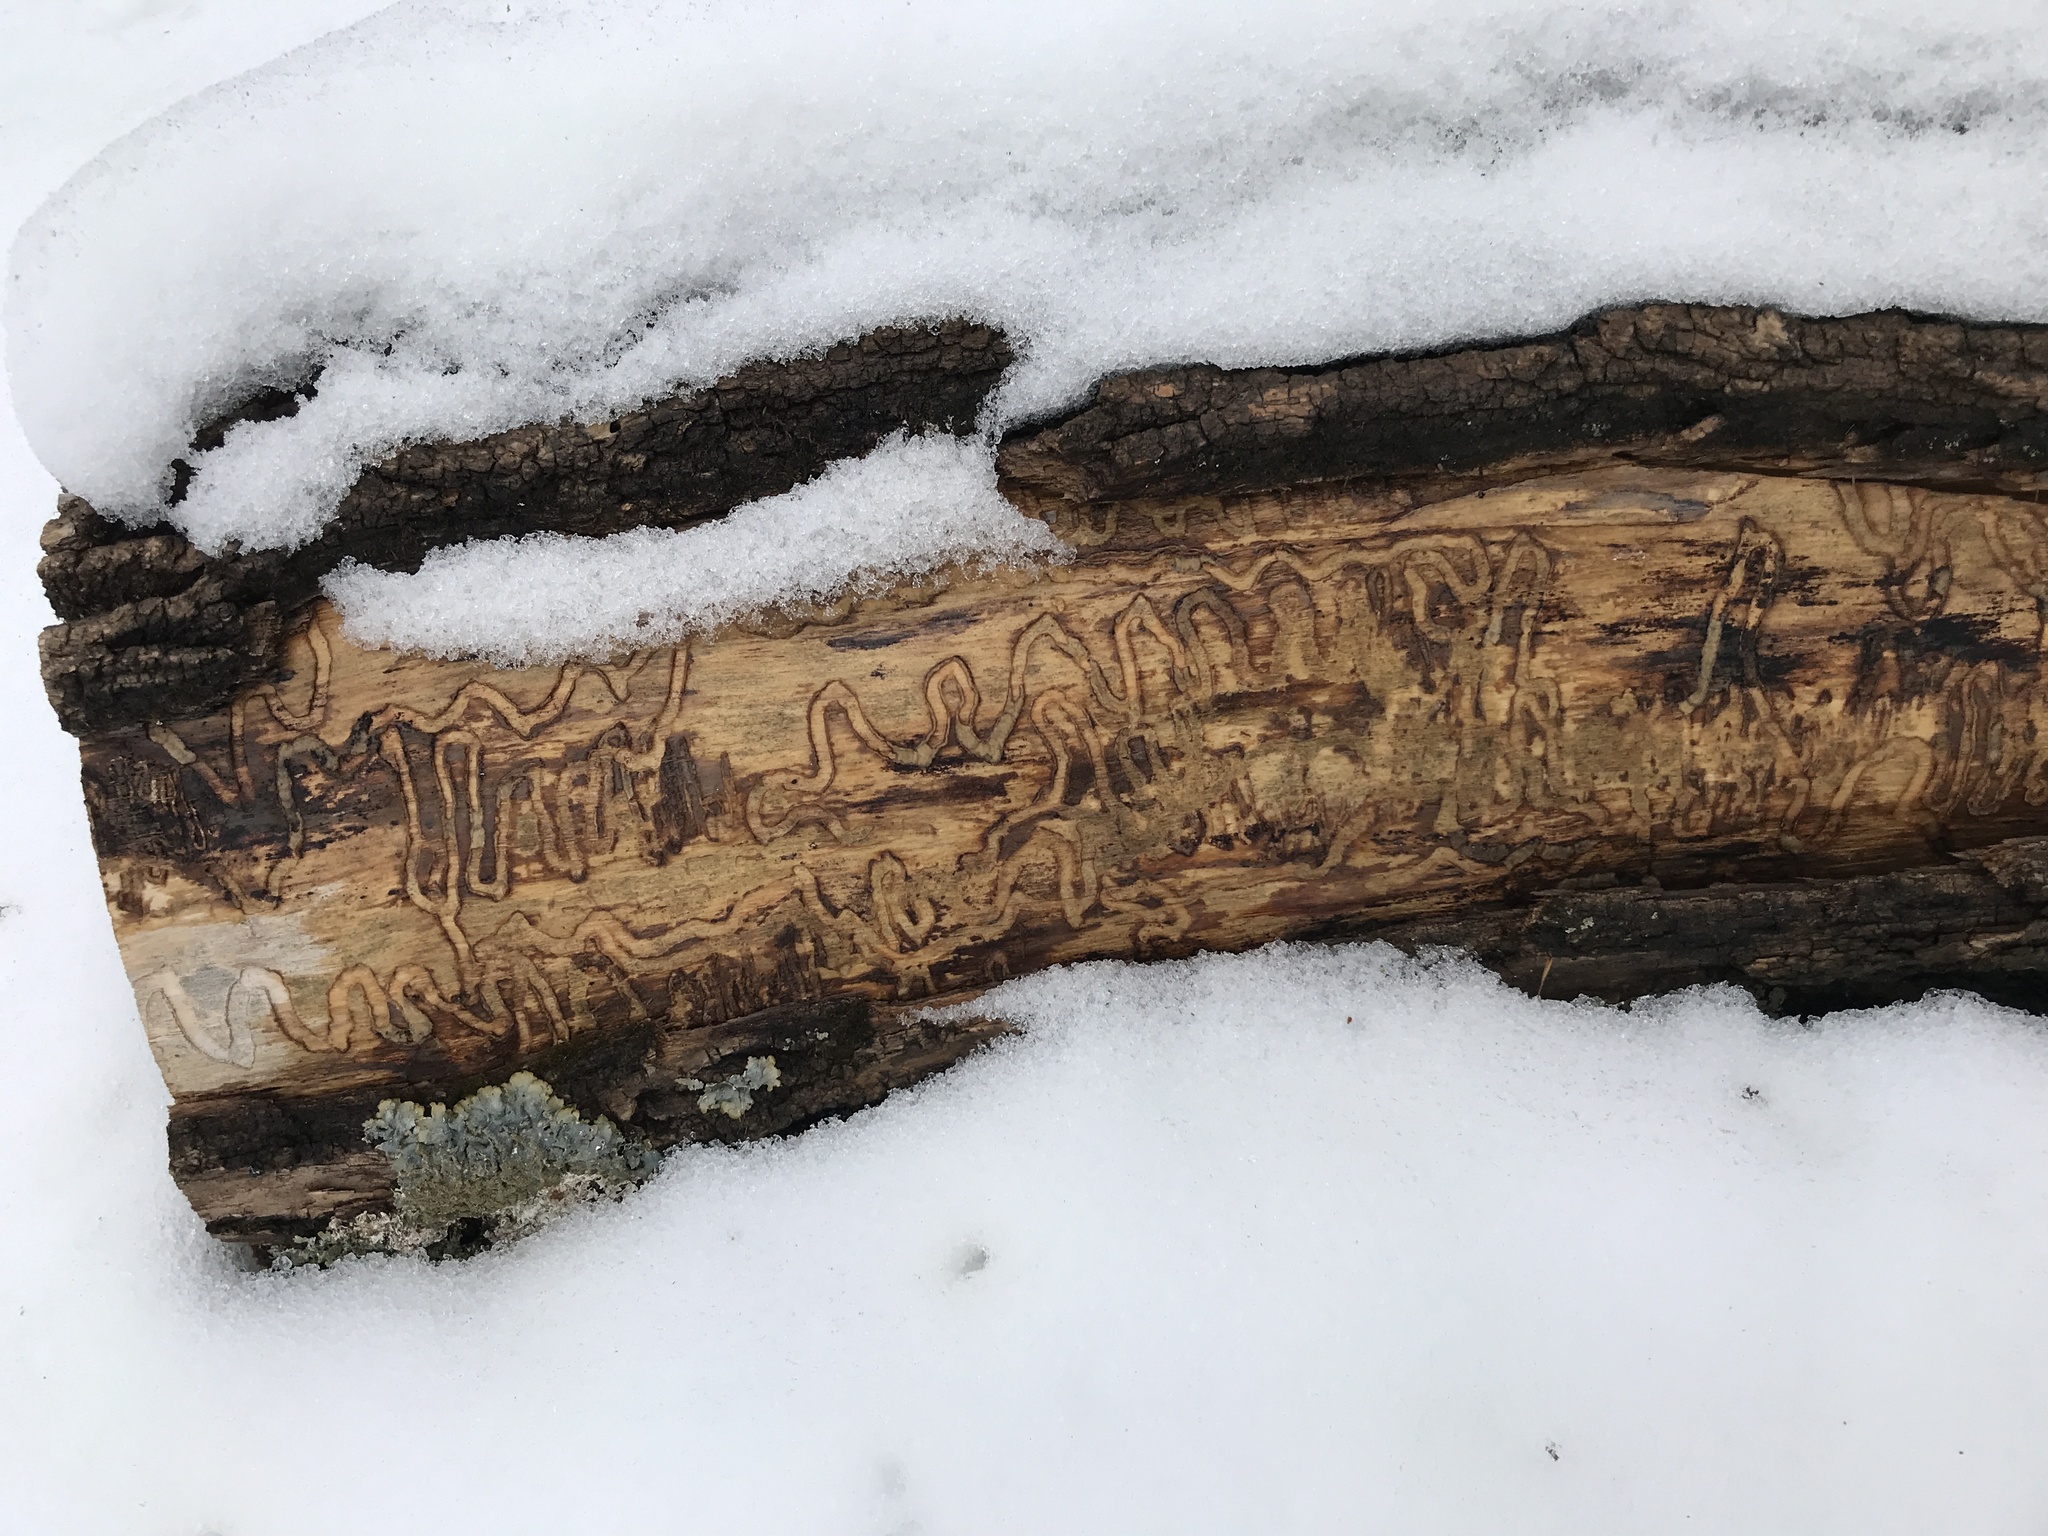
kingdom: Animalia
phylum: Arthropoda
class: Insecta
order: Coleoptera
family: Buprestidae
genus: Agrilus
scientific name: Agrilus planipennis
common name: Emerald ash borer
